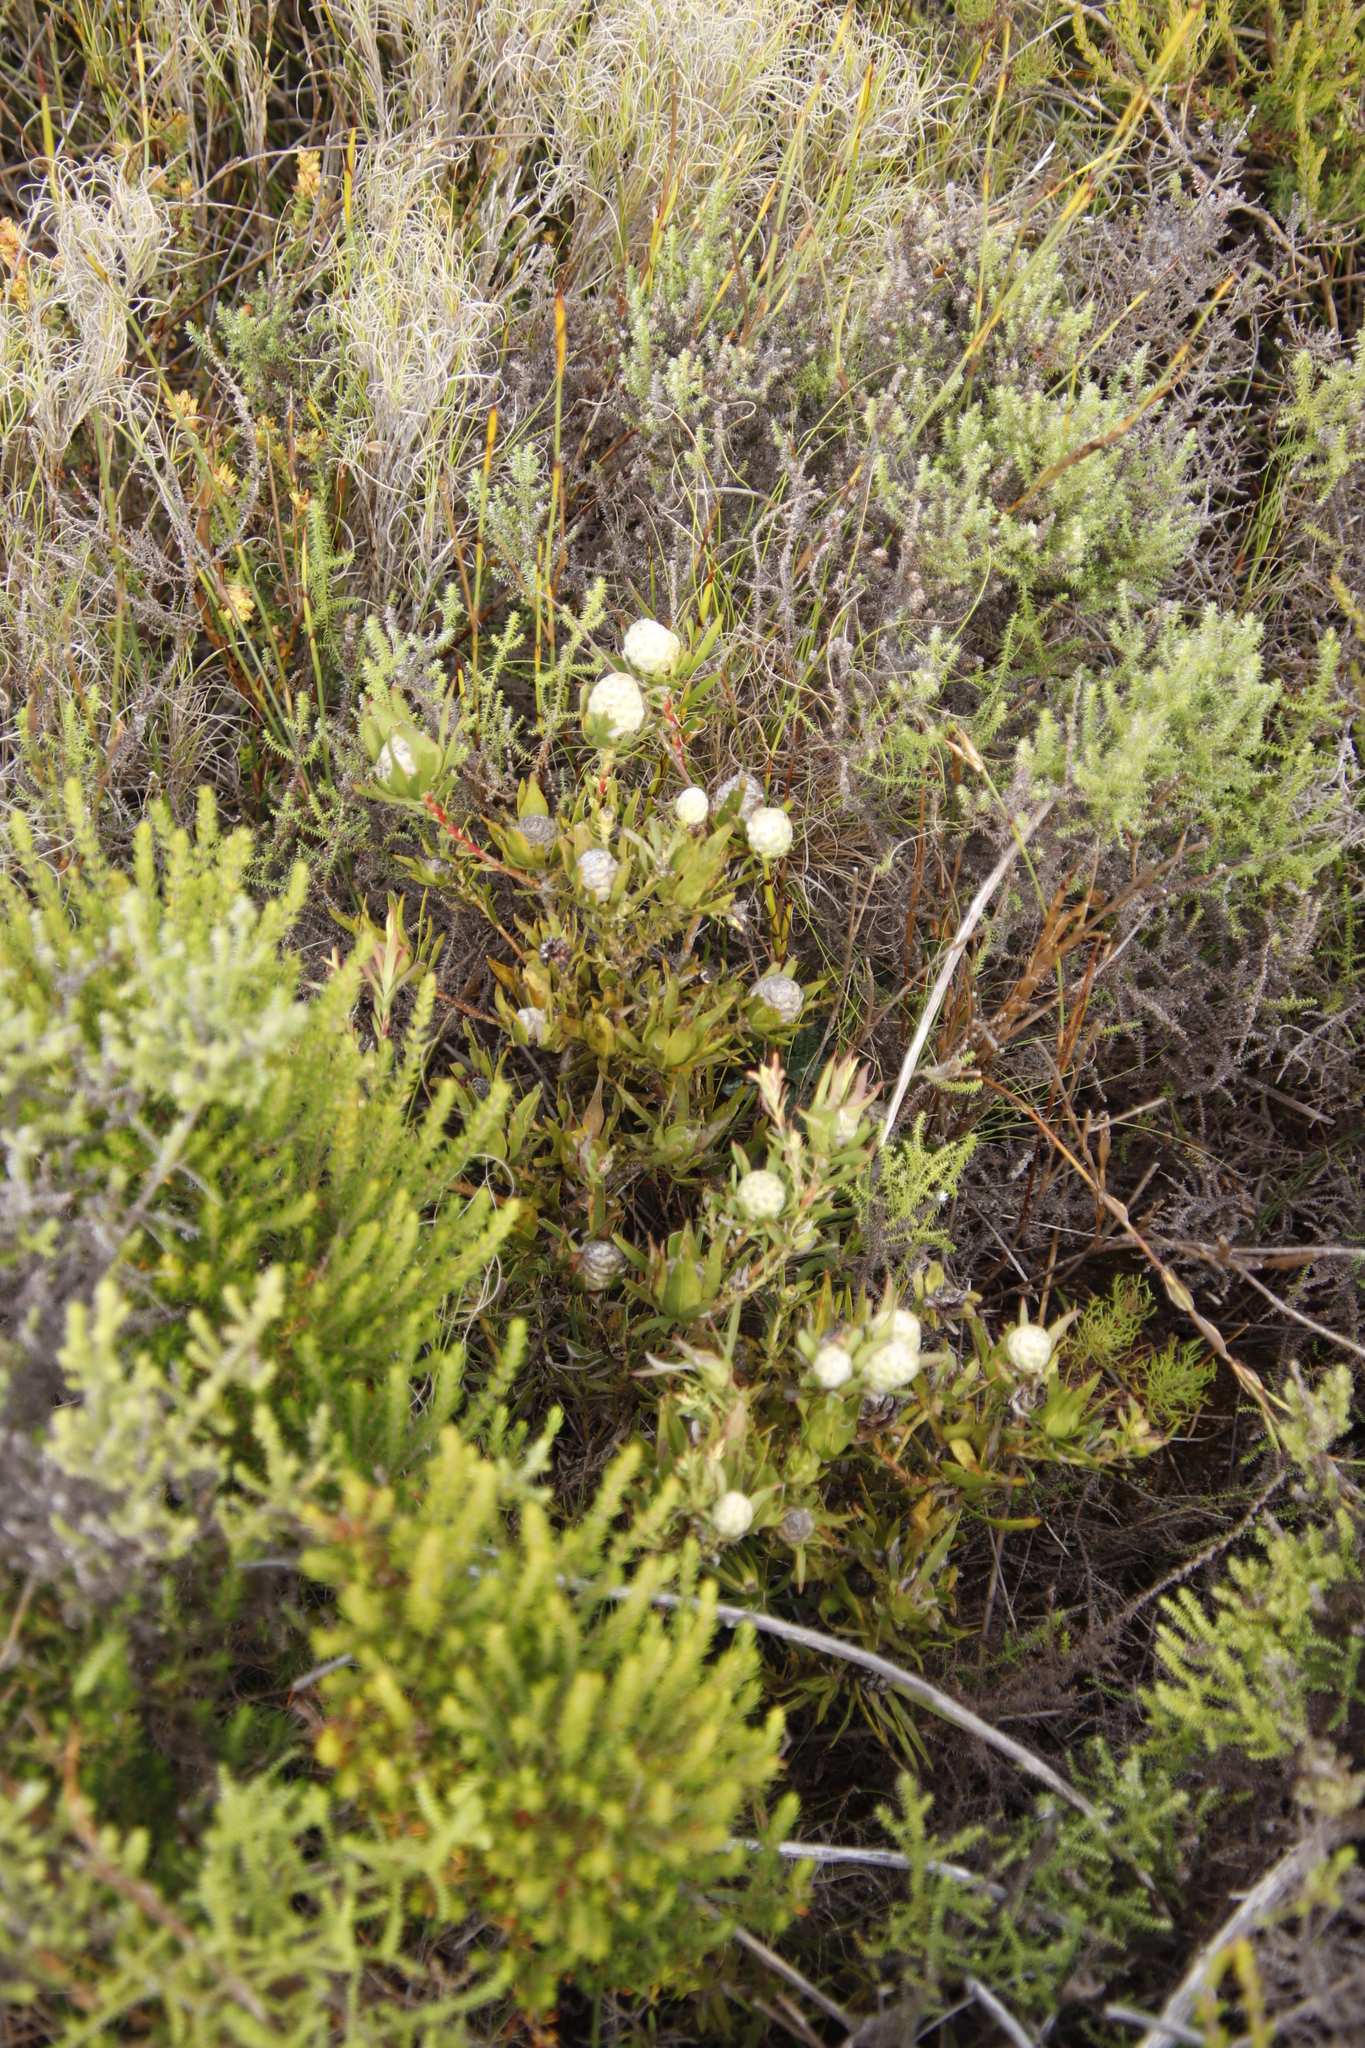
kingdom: Plantae
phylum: Tracheophyta
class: Magnoliopsida
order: Proteales
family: Proteaceae
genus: Leucadendron
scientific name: Leucadendron salignum
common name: Common sunshine conebush
